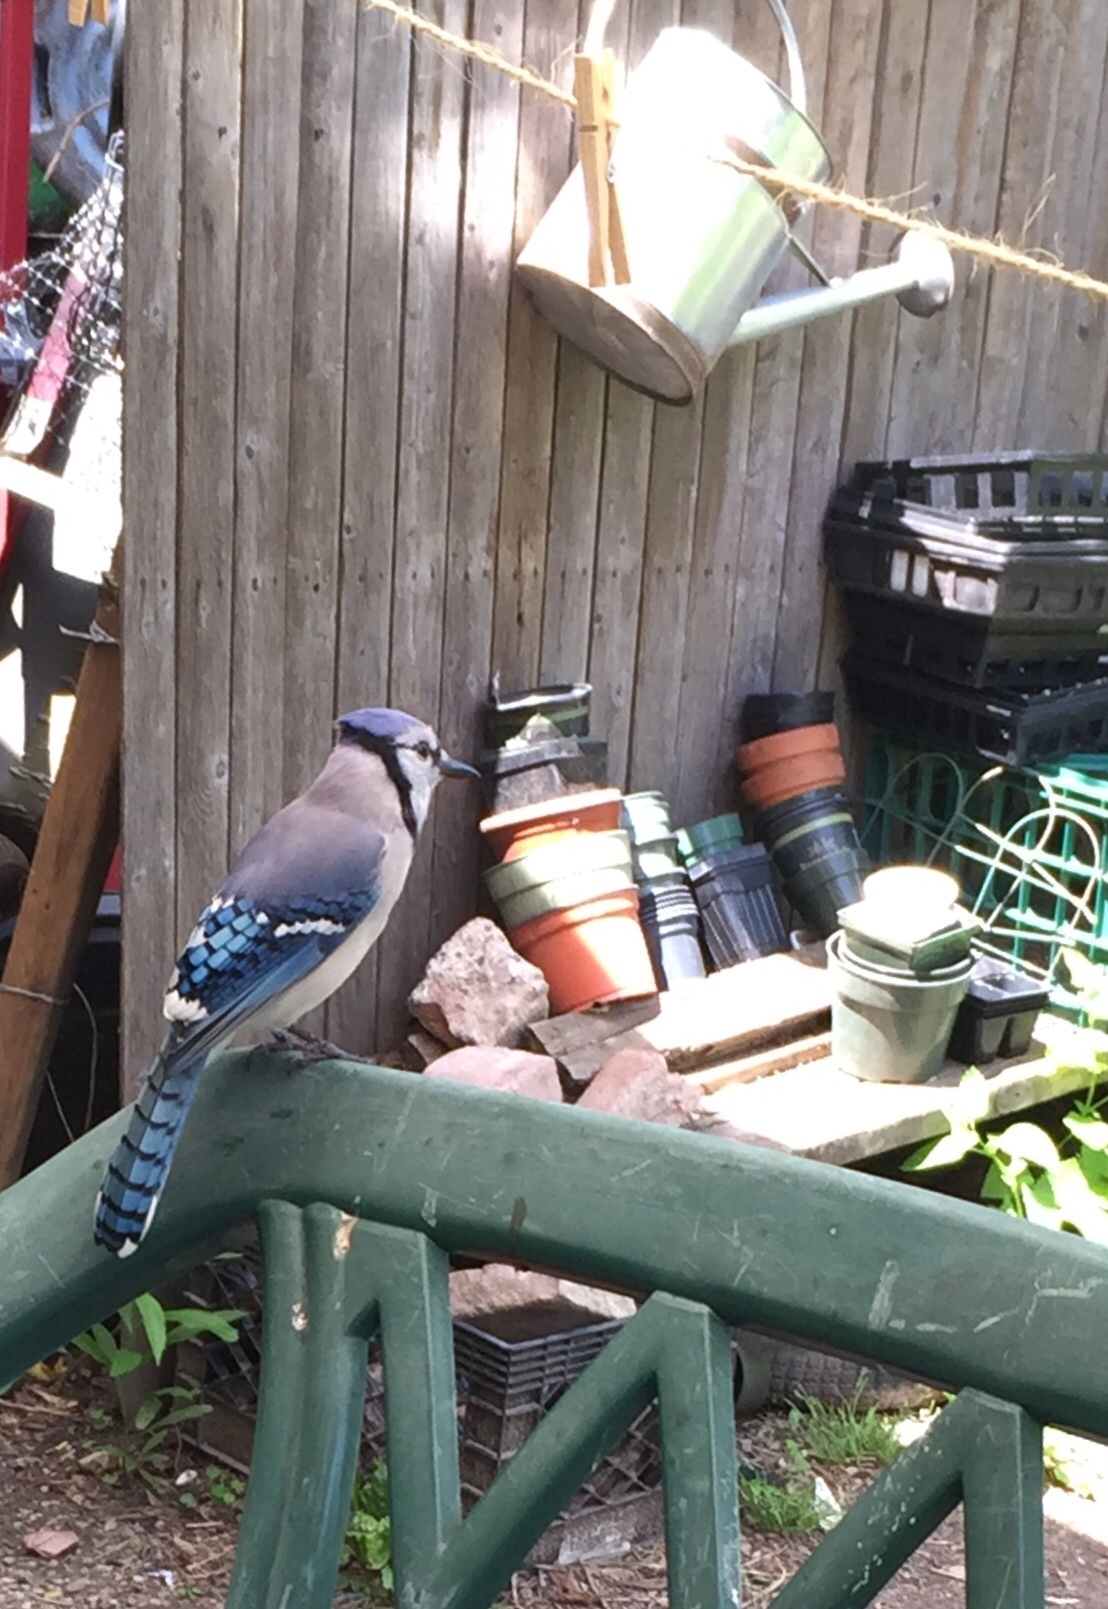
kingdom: Animalia
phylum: Chordata
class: Aves
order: Passeriformes
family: Corvidae
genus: Cyanocitta
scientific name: Cyanocitta cristata
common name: Blue jay
